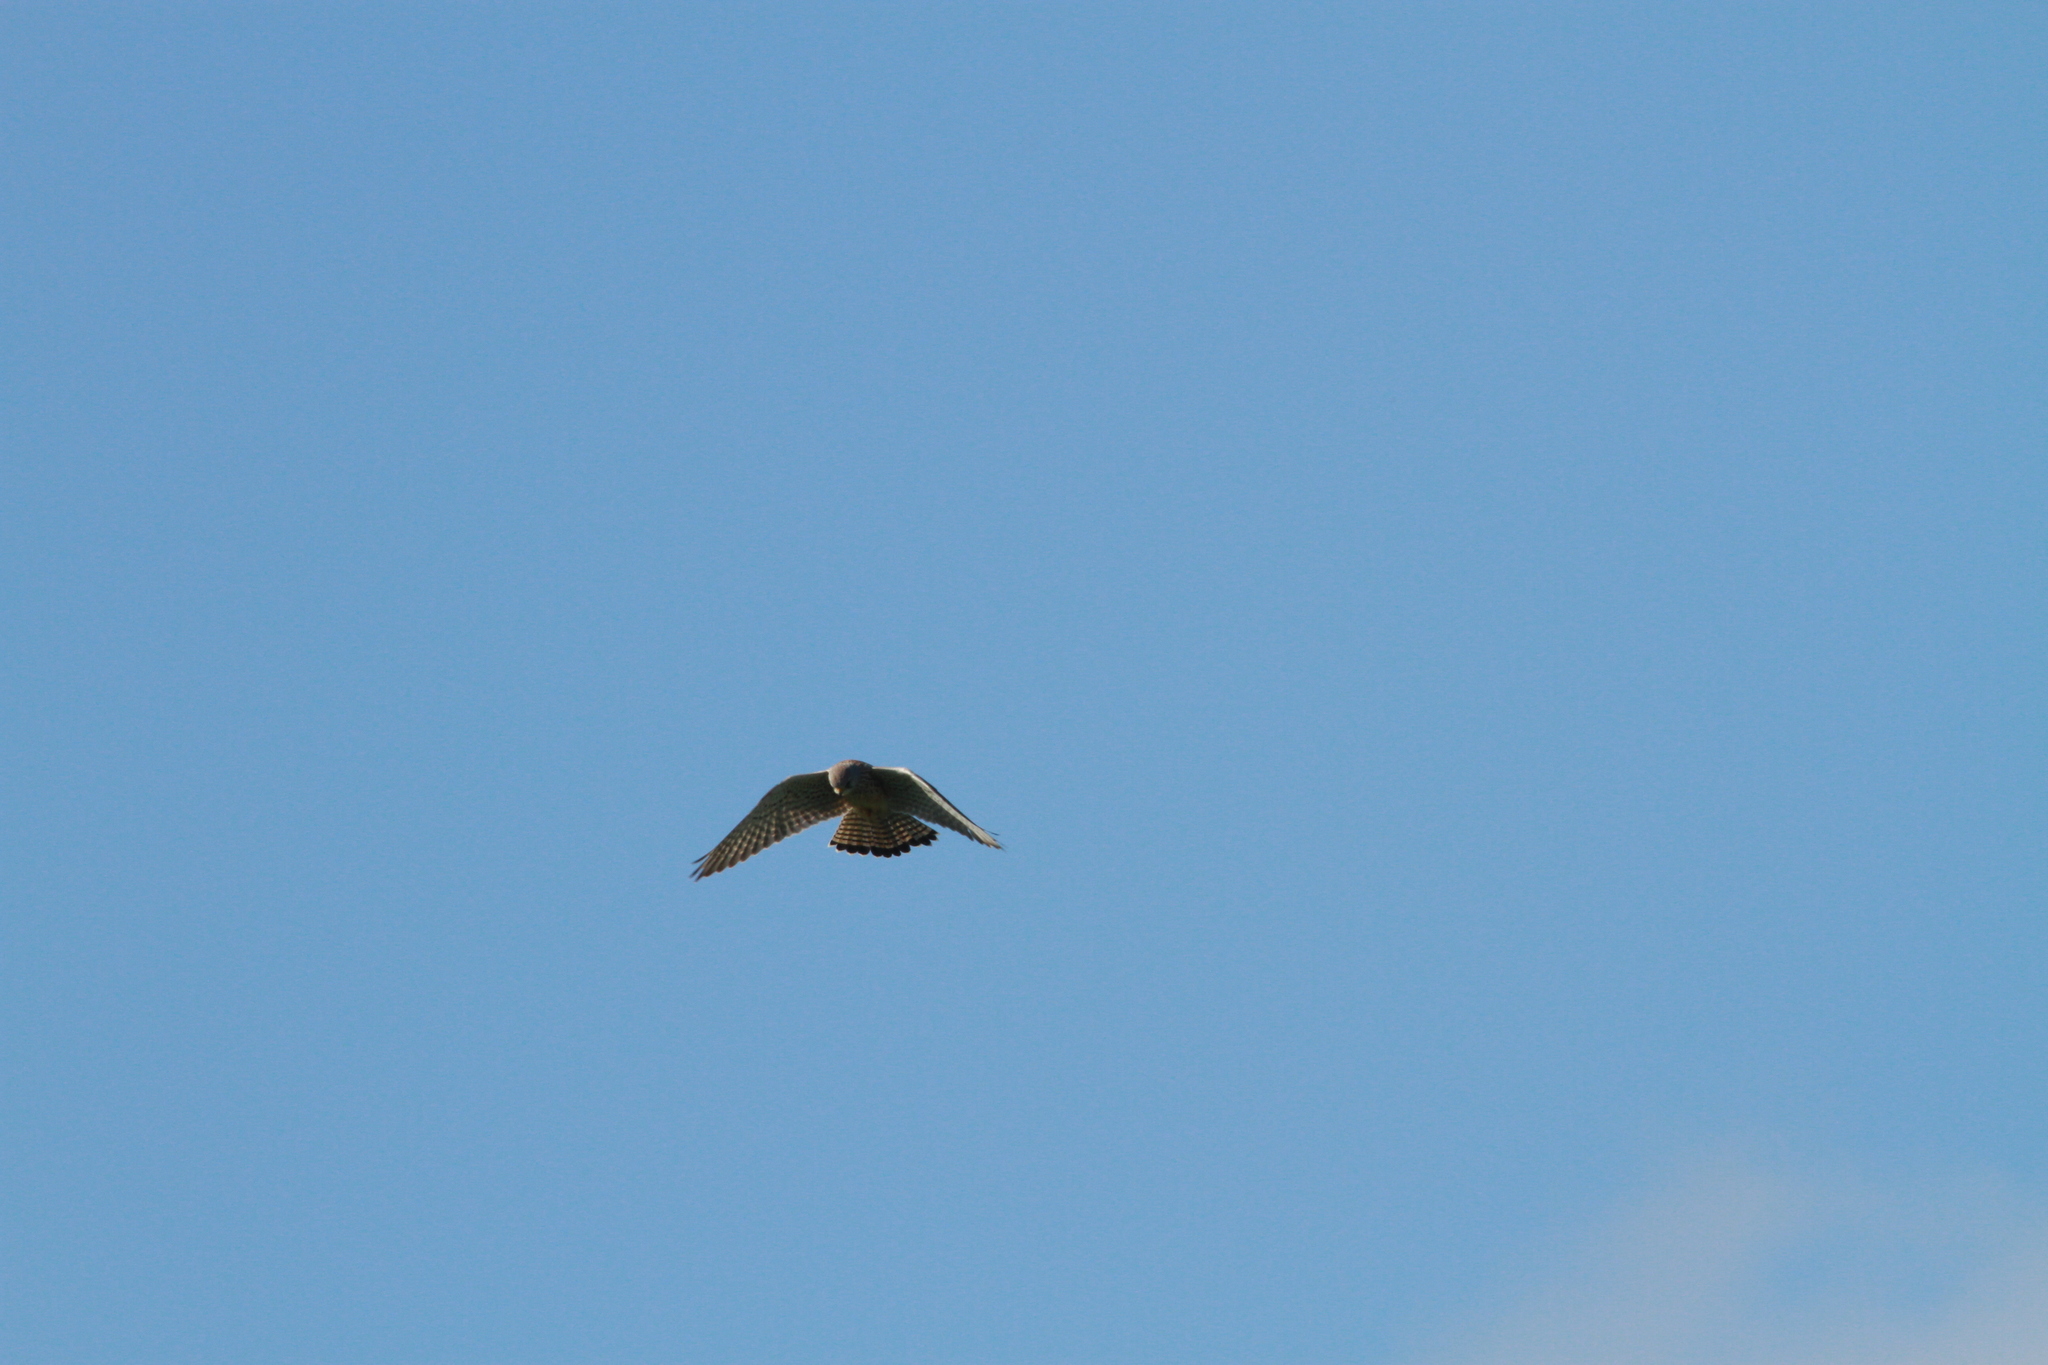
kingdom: Animalia
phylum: Chordata
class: Aves
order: Falconiformes
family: Falconidae
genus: Falco
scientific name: Falco tinnunculus
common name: Common kestrel
